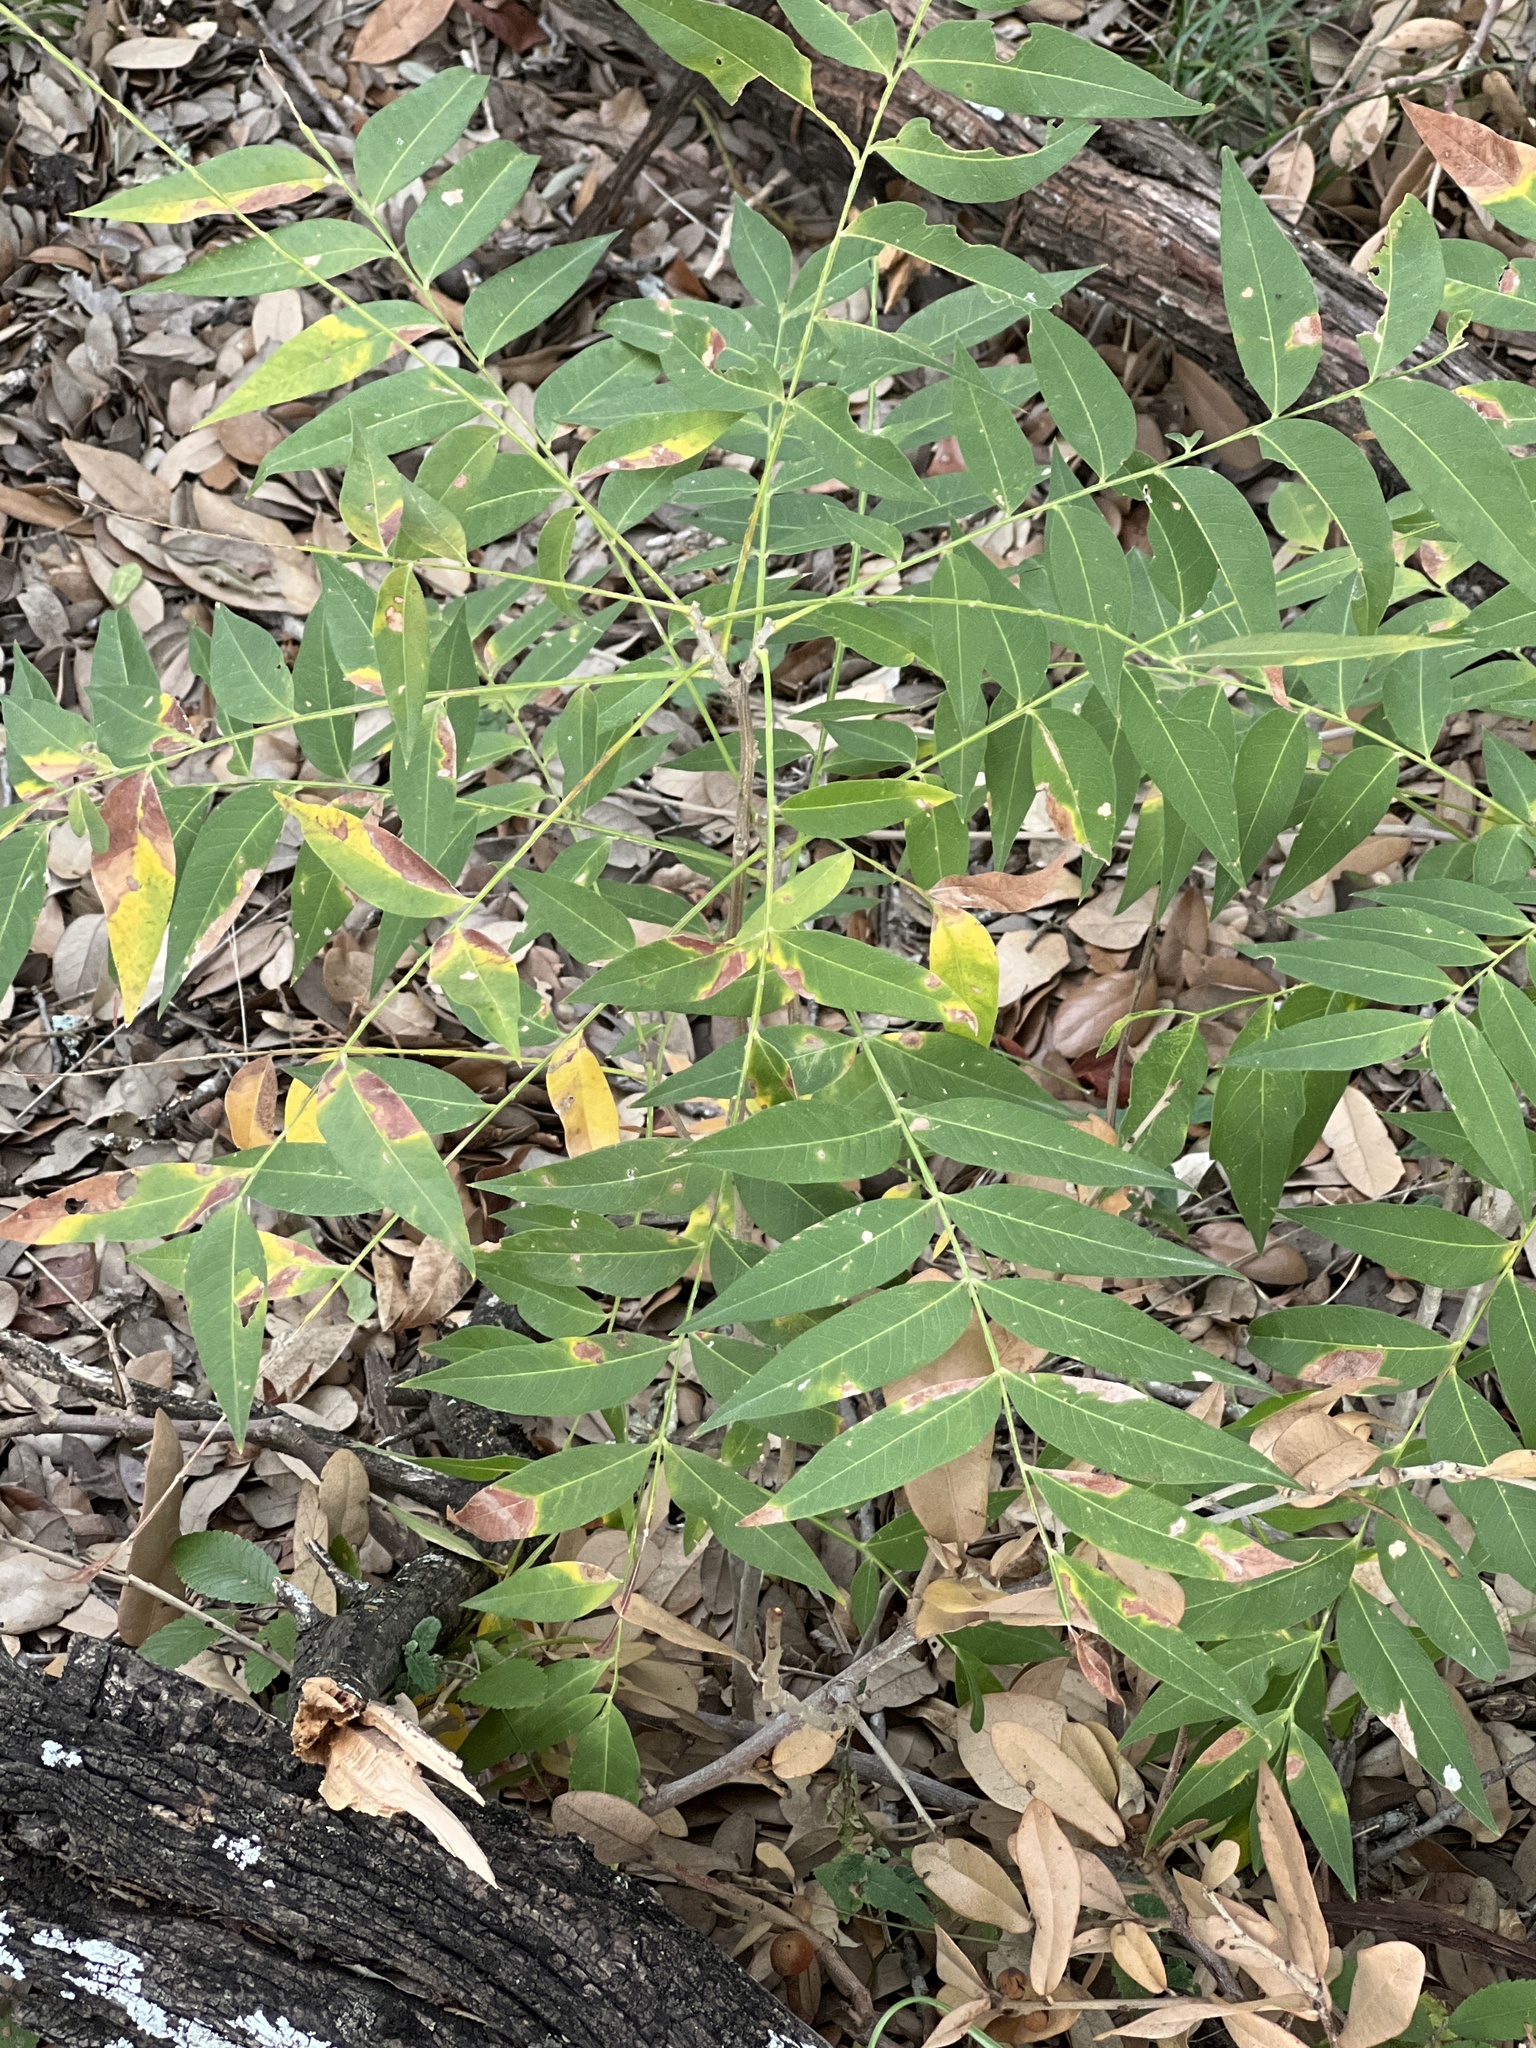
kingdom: Plantae
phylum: Tracheophyta
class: Magnoliopsida
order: Sapindales
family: Sapindaceae
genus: Sapindus
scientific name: Sapindus drummondii
